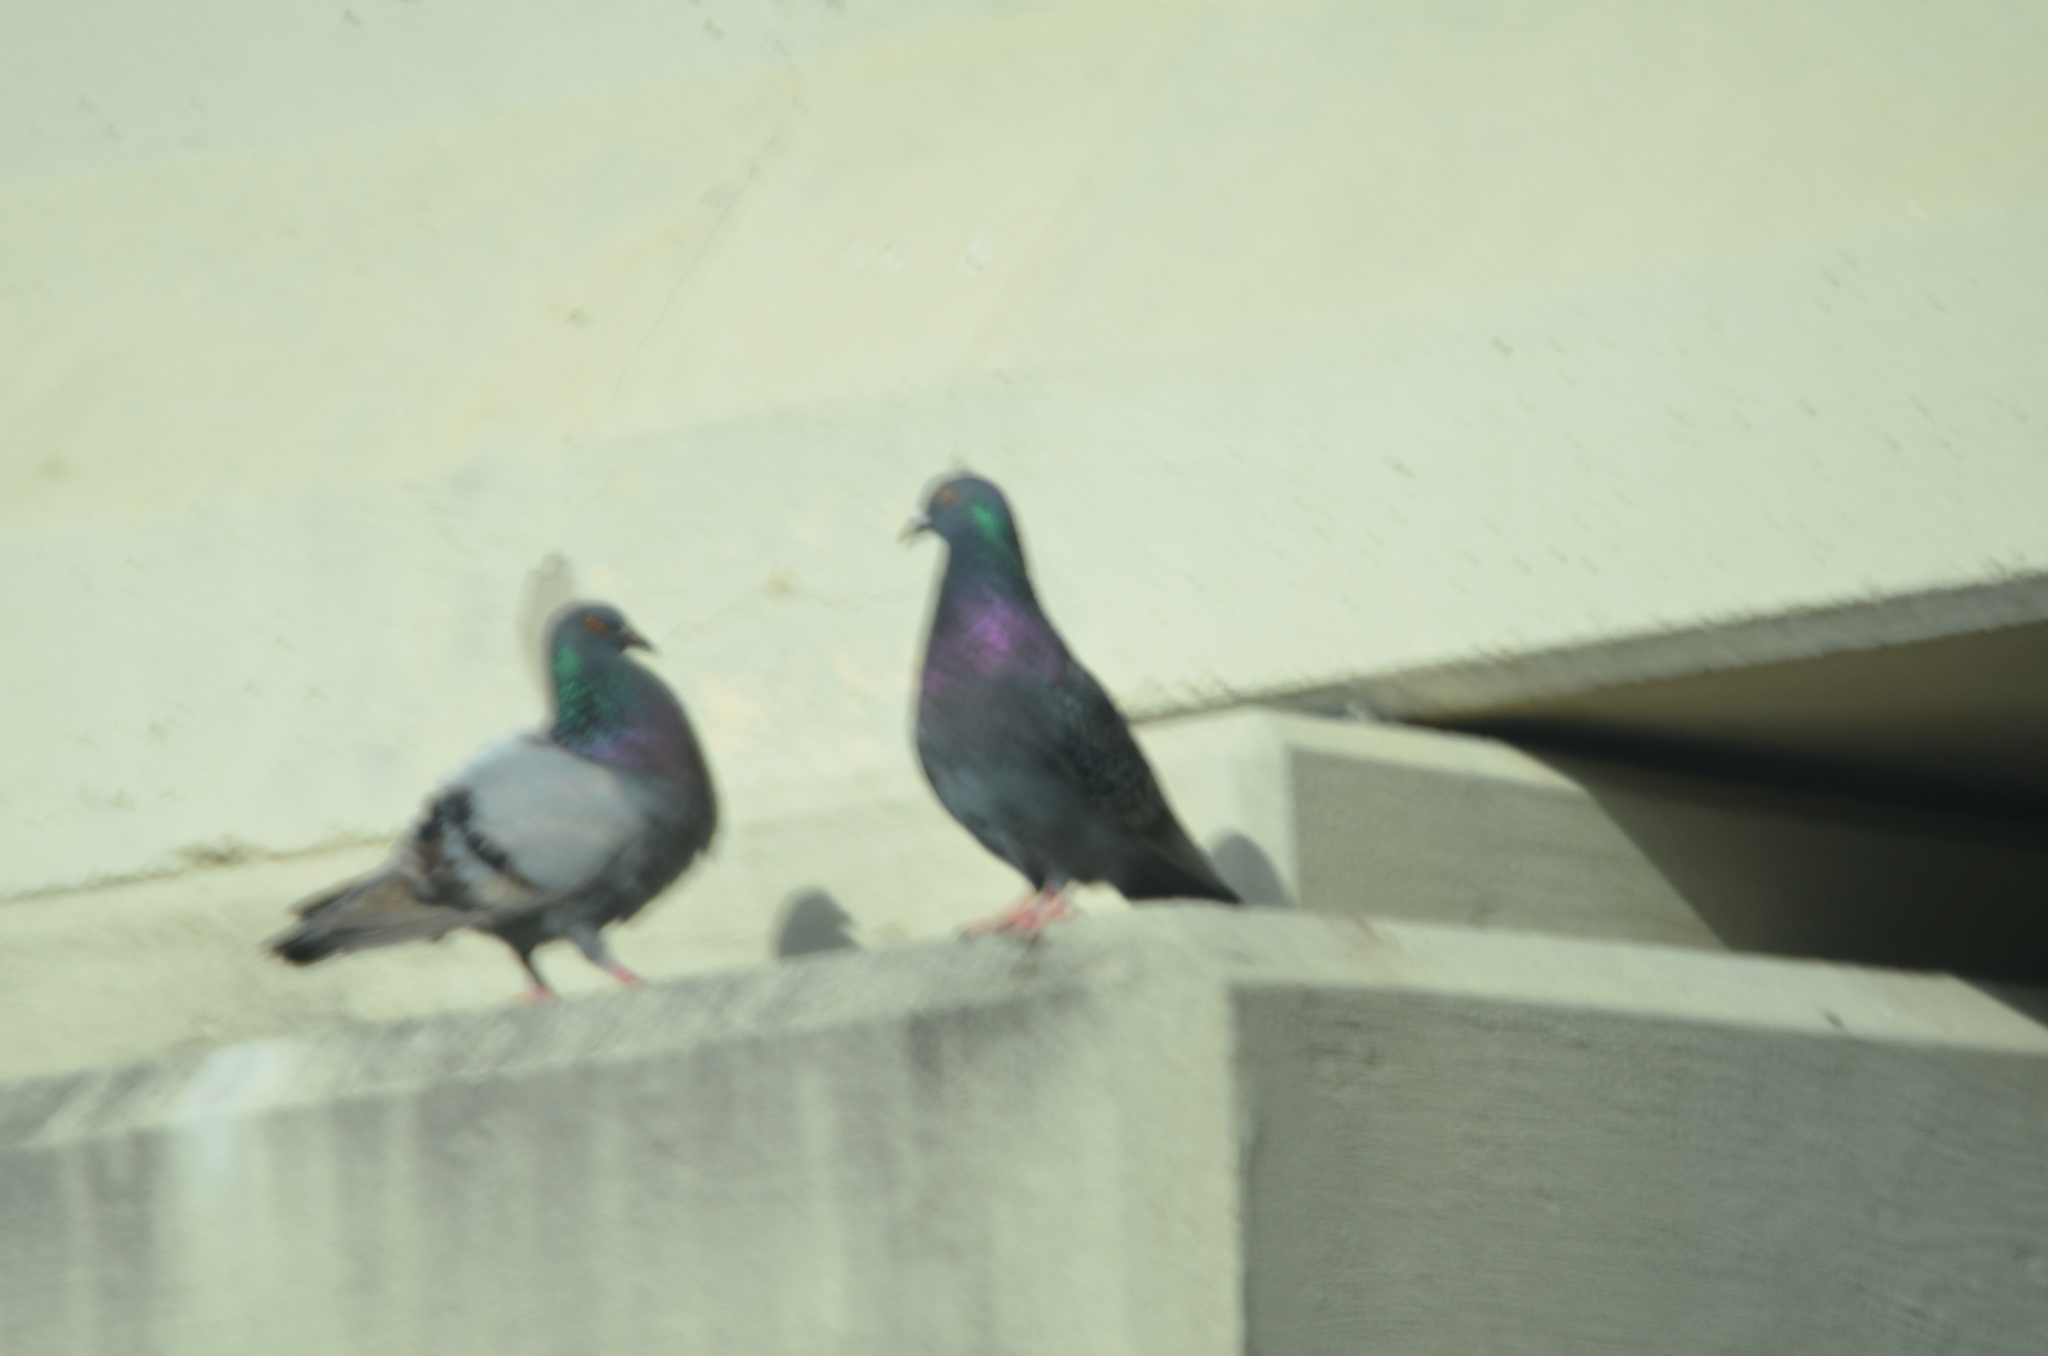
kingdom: Animalia
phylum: Chordata
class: Aves
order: Columbiformes
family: Columbidae
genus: Columba
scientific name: Columba livia
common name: Rock pigeon
